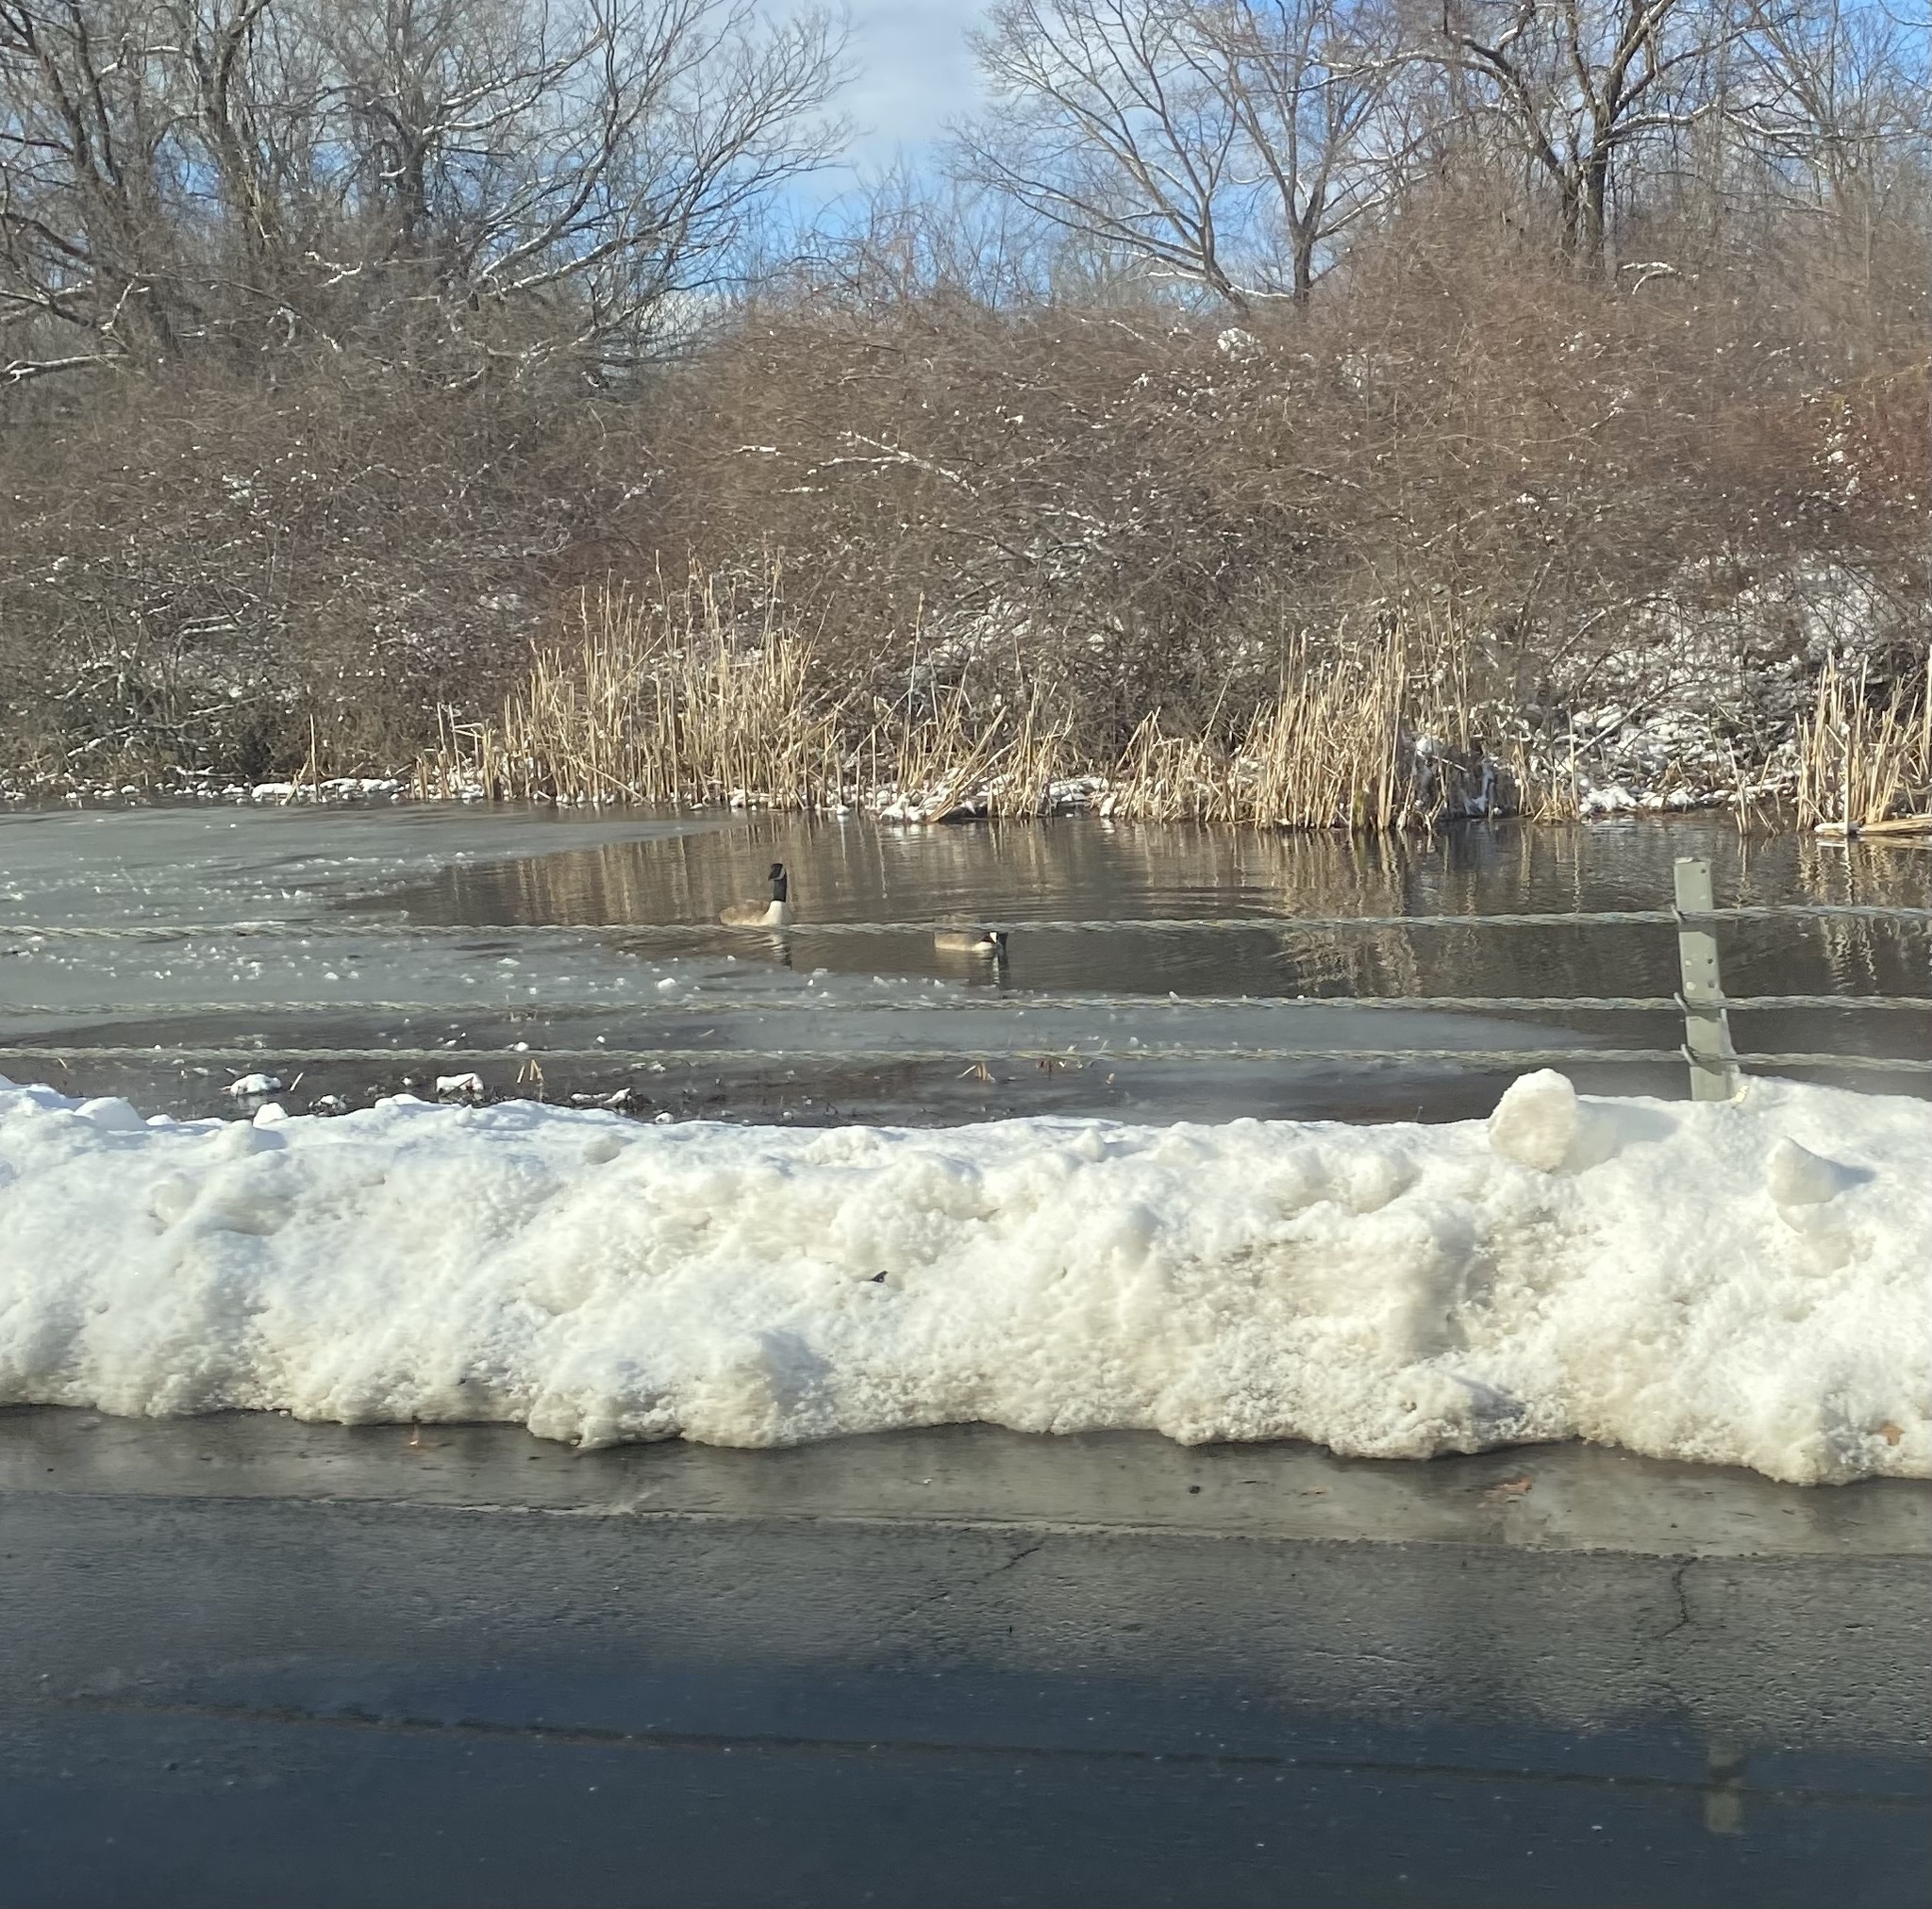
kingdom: Animalia
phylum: Chordata
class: Aves
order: Anseriformes
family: Anatidae
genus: Branta
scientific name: Branta canadensis
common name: Canada goose
